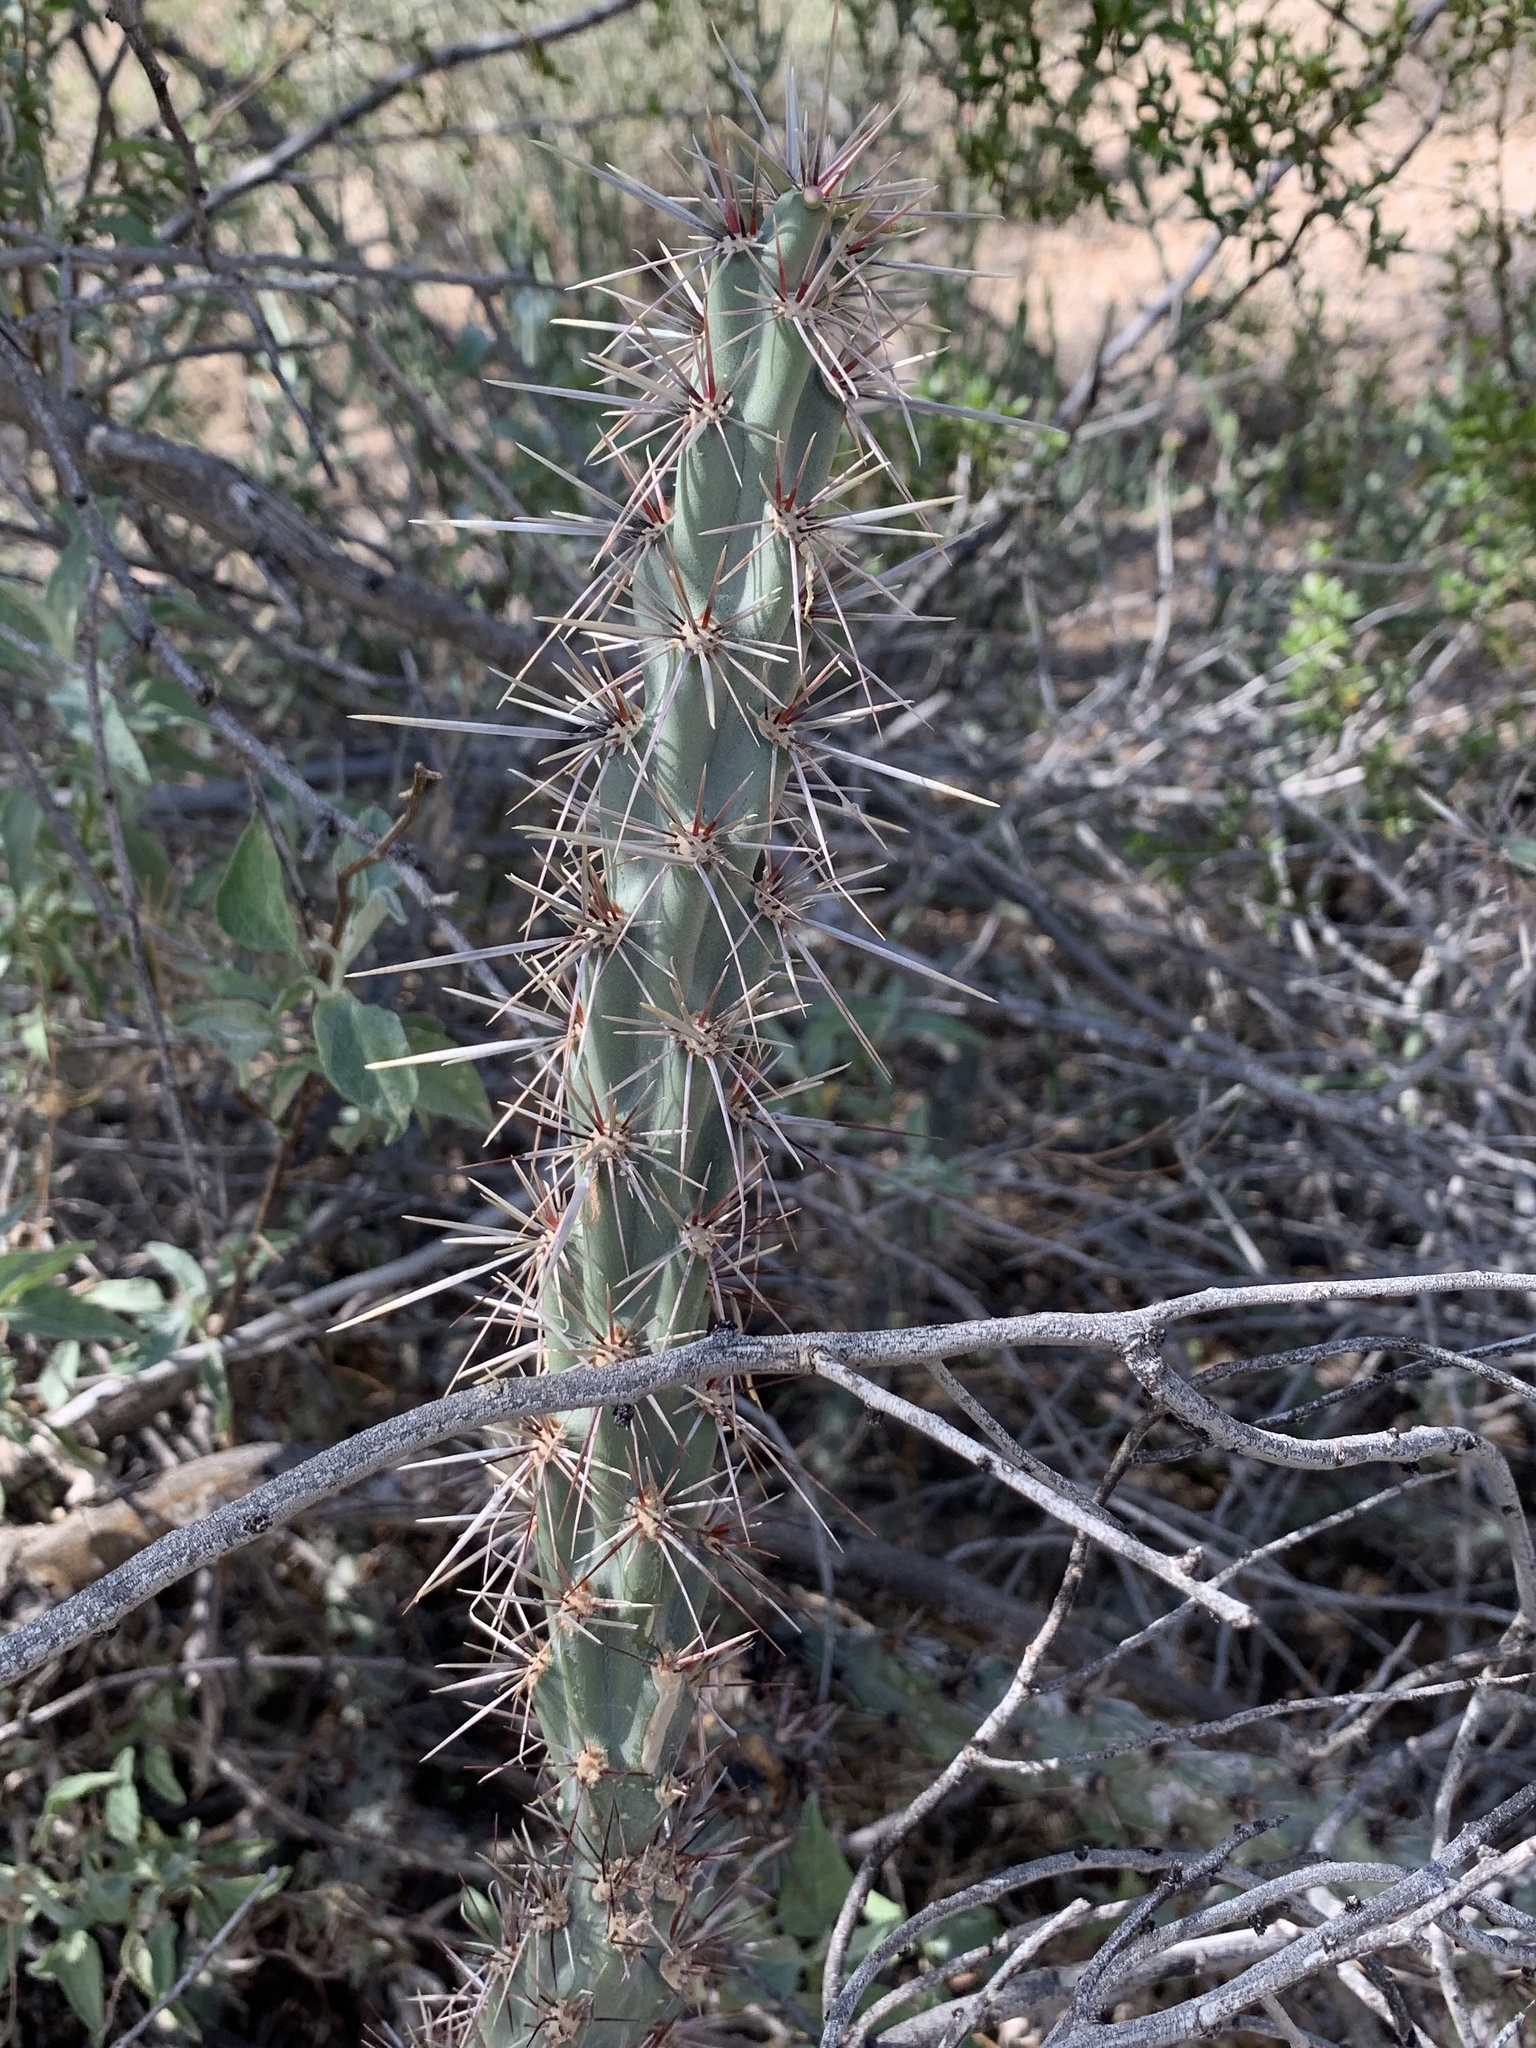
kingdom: Plantae
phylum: Tracheophyta
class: Magnoliopsida
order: Caryophyllales
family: Cactaceae
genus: Cylindropuntia
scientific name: Cylindropuntia acanthocarpa
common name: Buckhorn cholla
